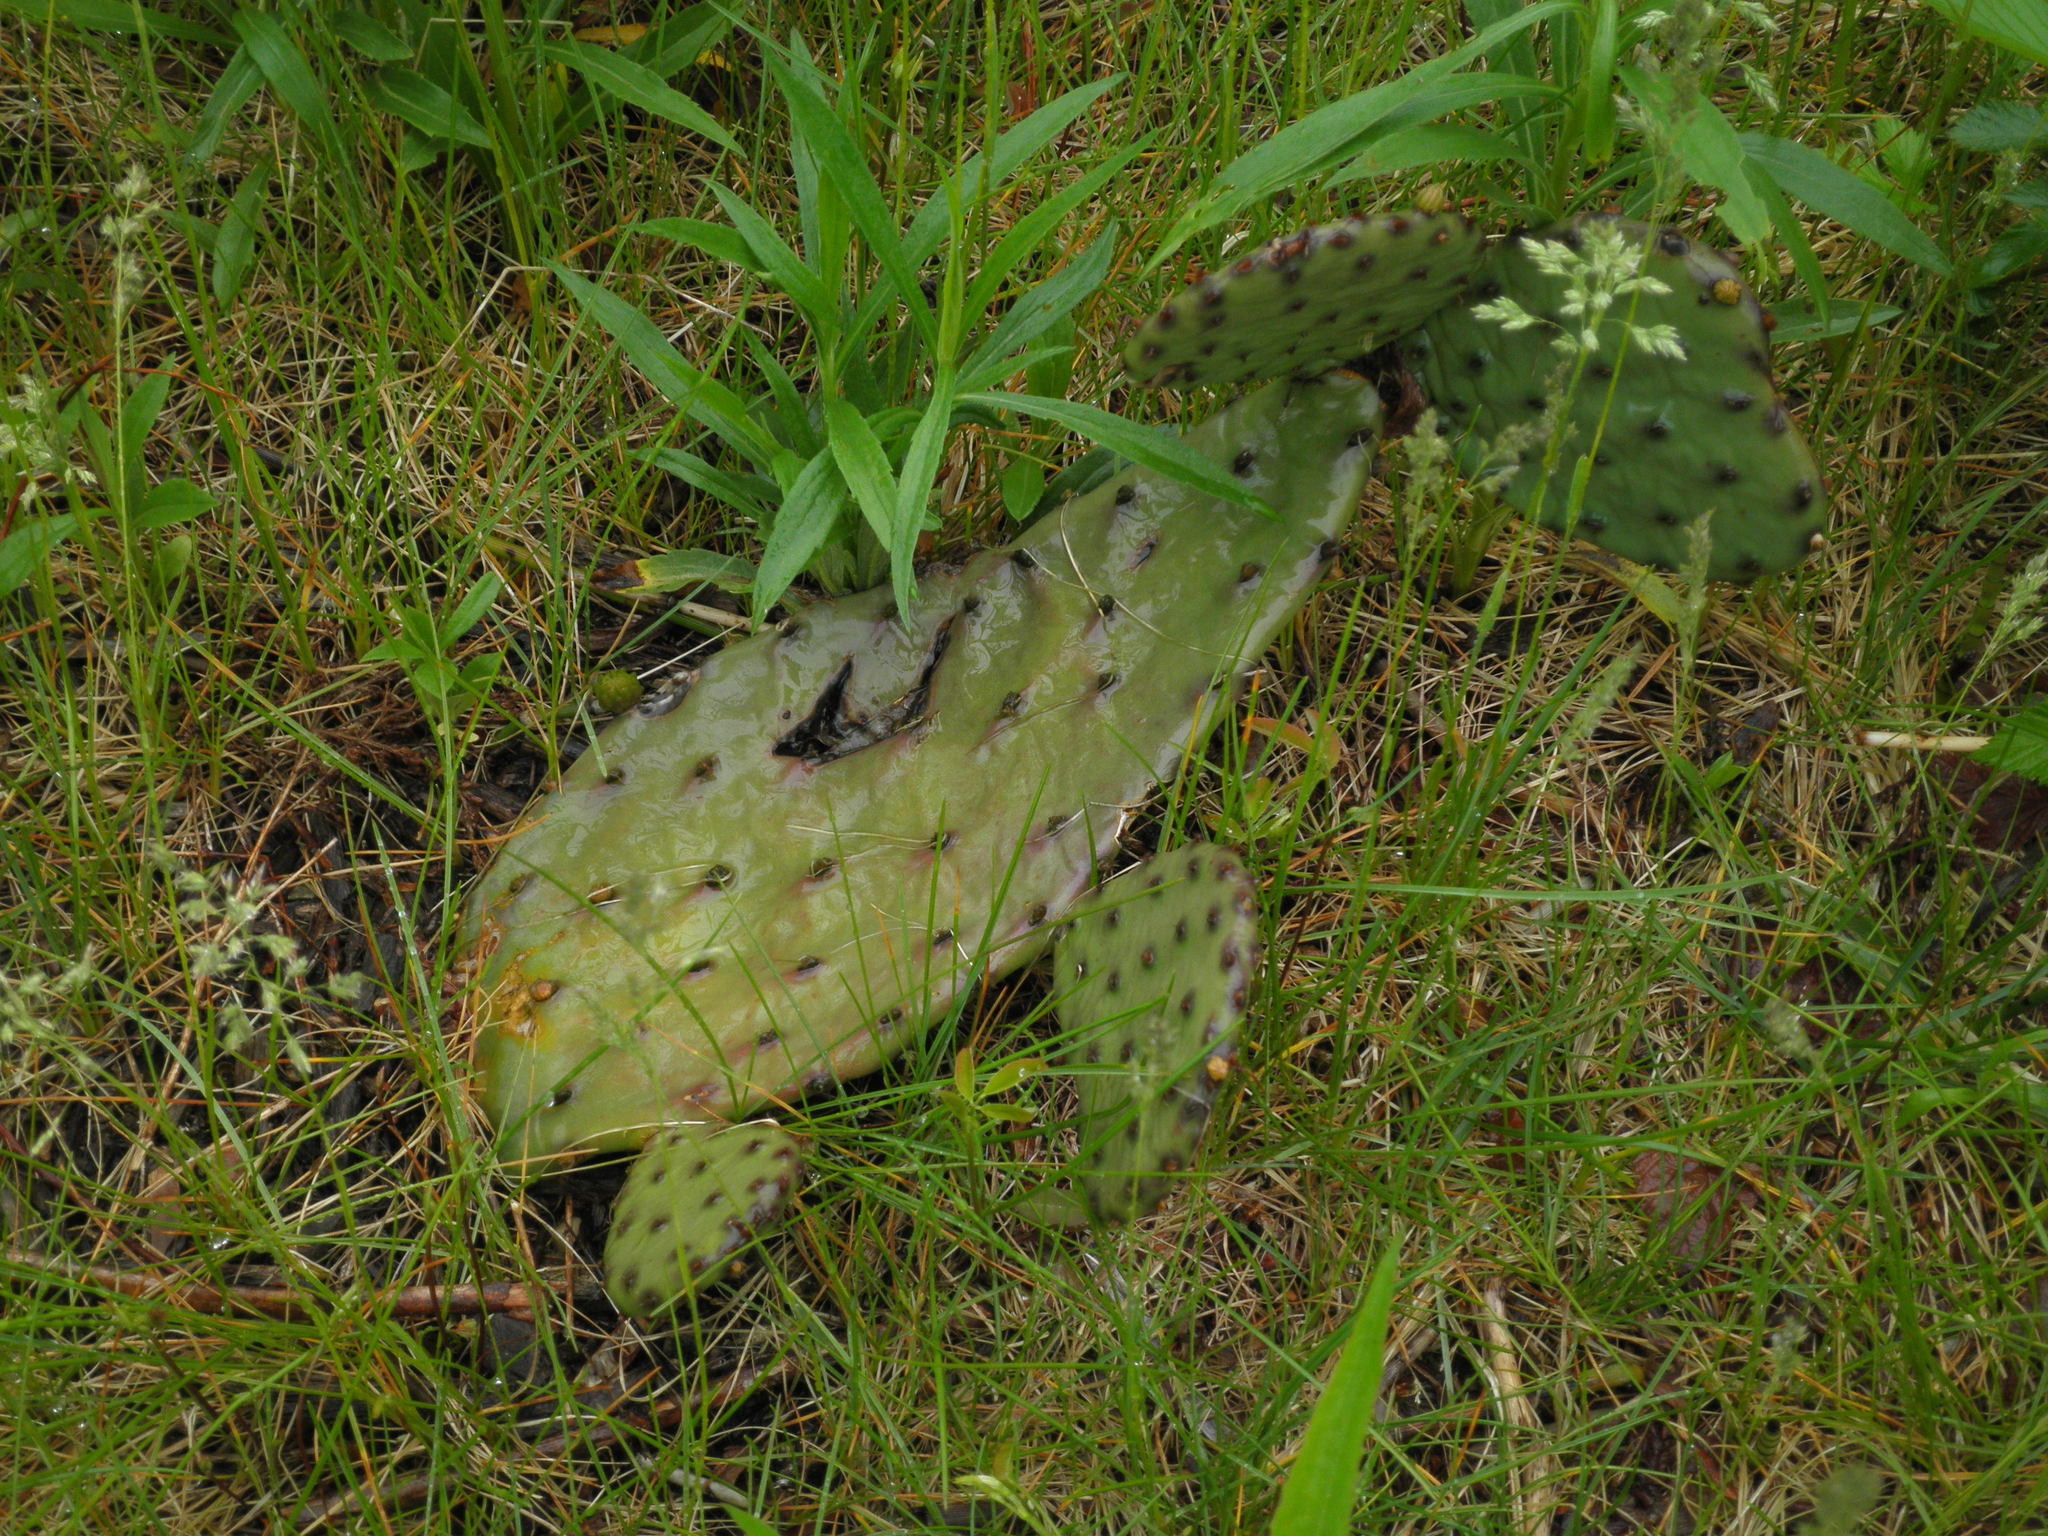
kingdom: Plantae
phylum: Tracheophyta
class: Magnoliopsida
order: Caryophyllales
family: Cactaceae
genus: Opuntia
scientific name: Opuntia humifusa
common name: Eastern prickly-pear
